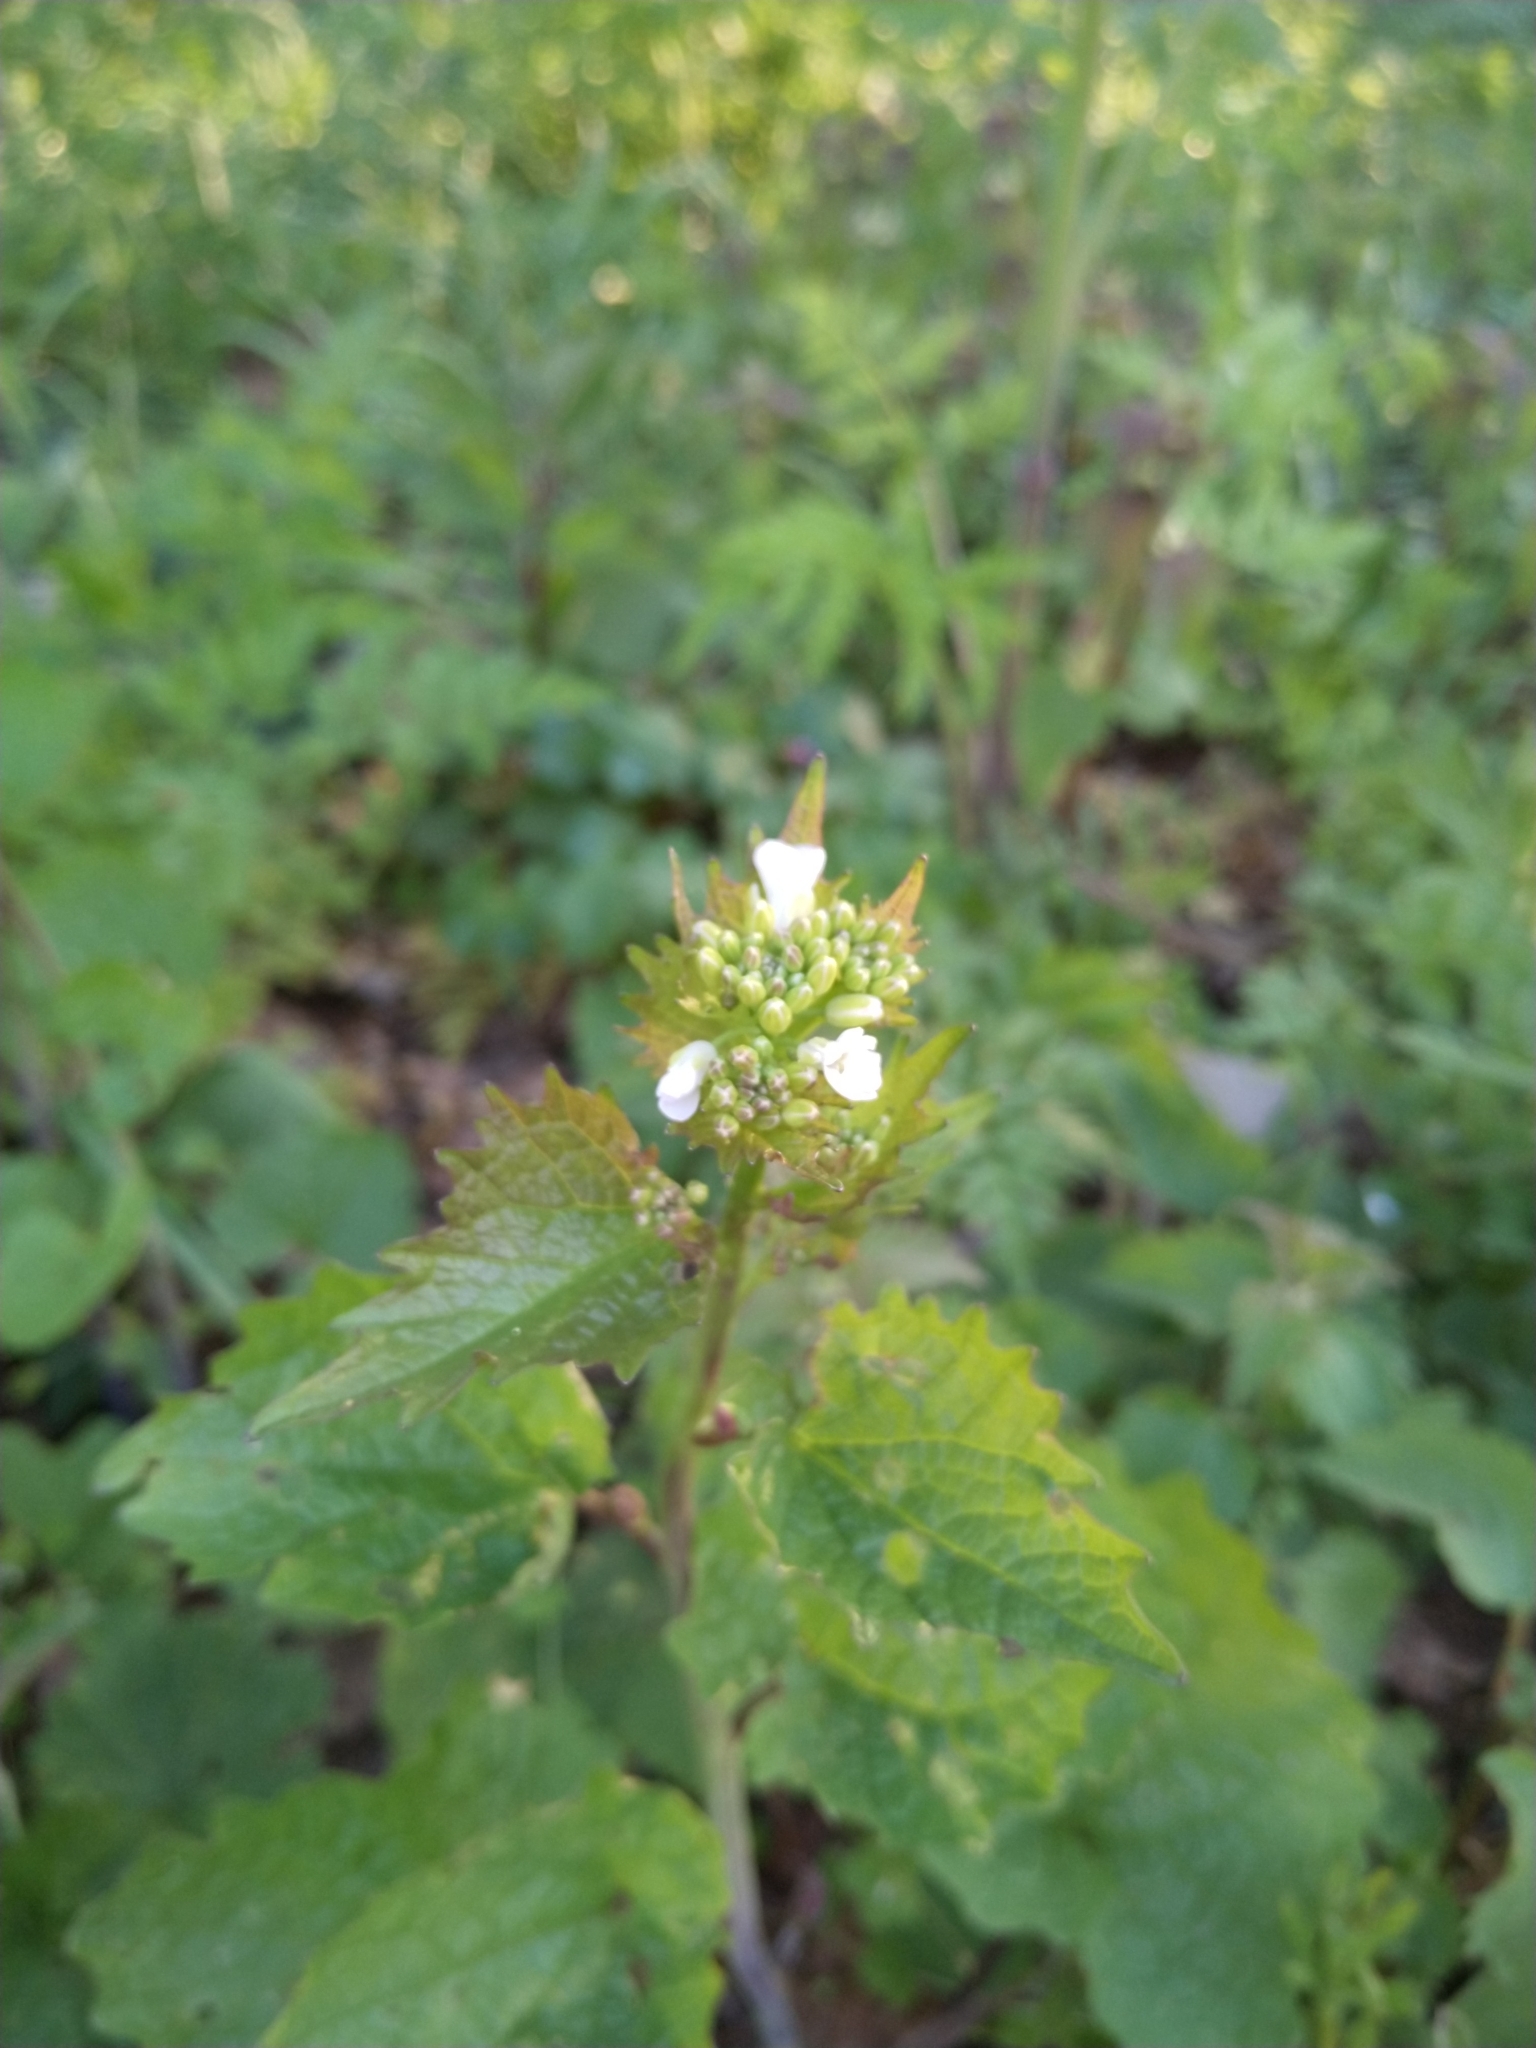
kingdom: Plantae
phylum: Tracheophyta
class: Magnoliopsida
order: Brassicales
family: Brassicaceae
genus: Alliaria
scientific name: Alliaria petiolata
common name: Garlic mustard
